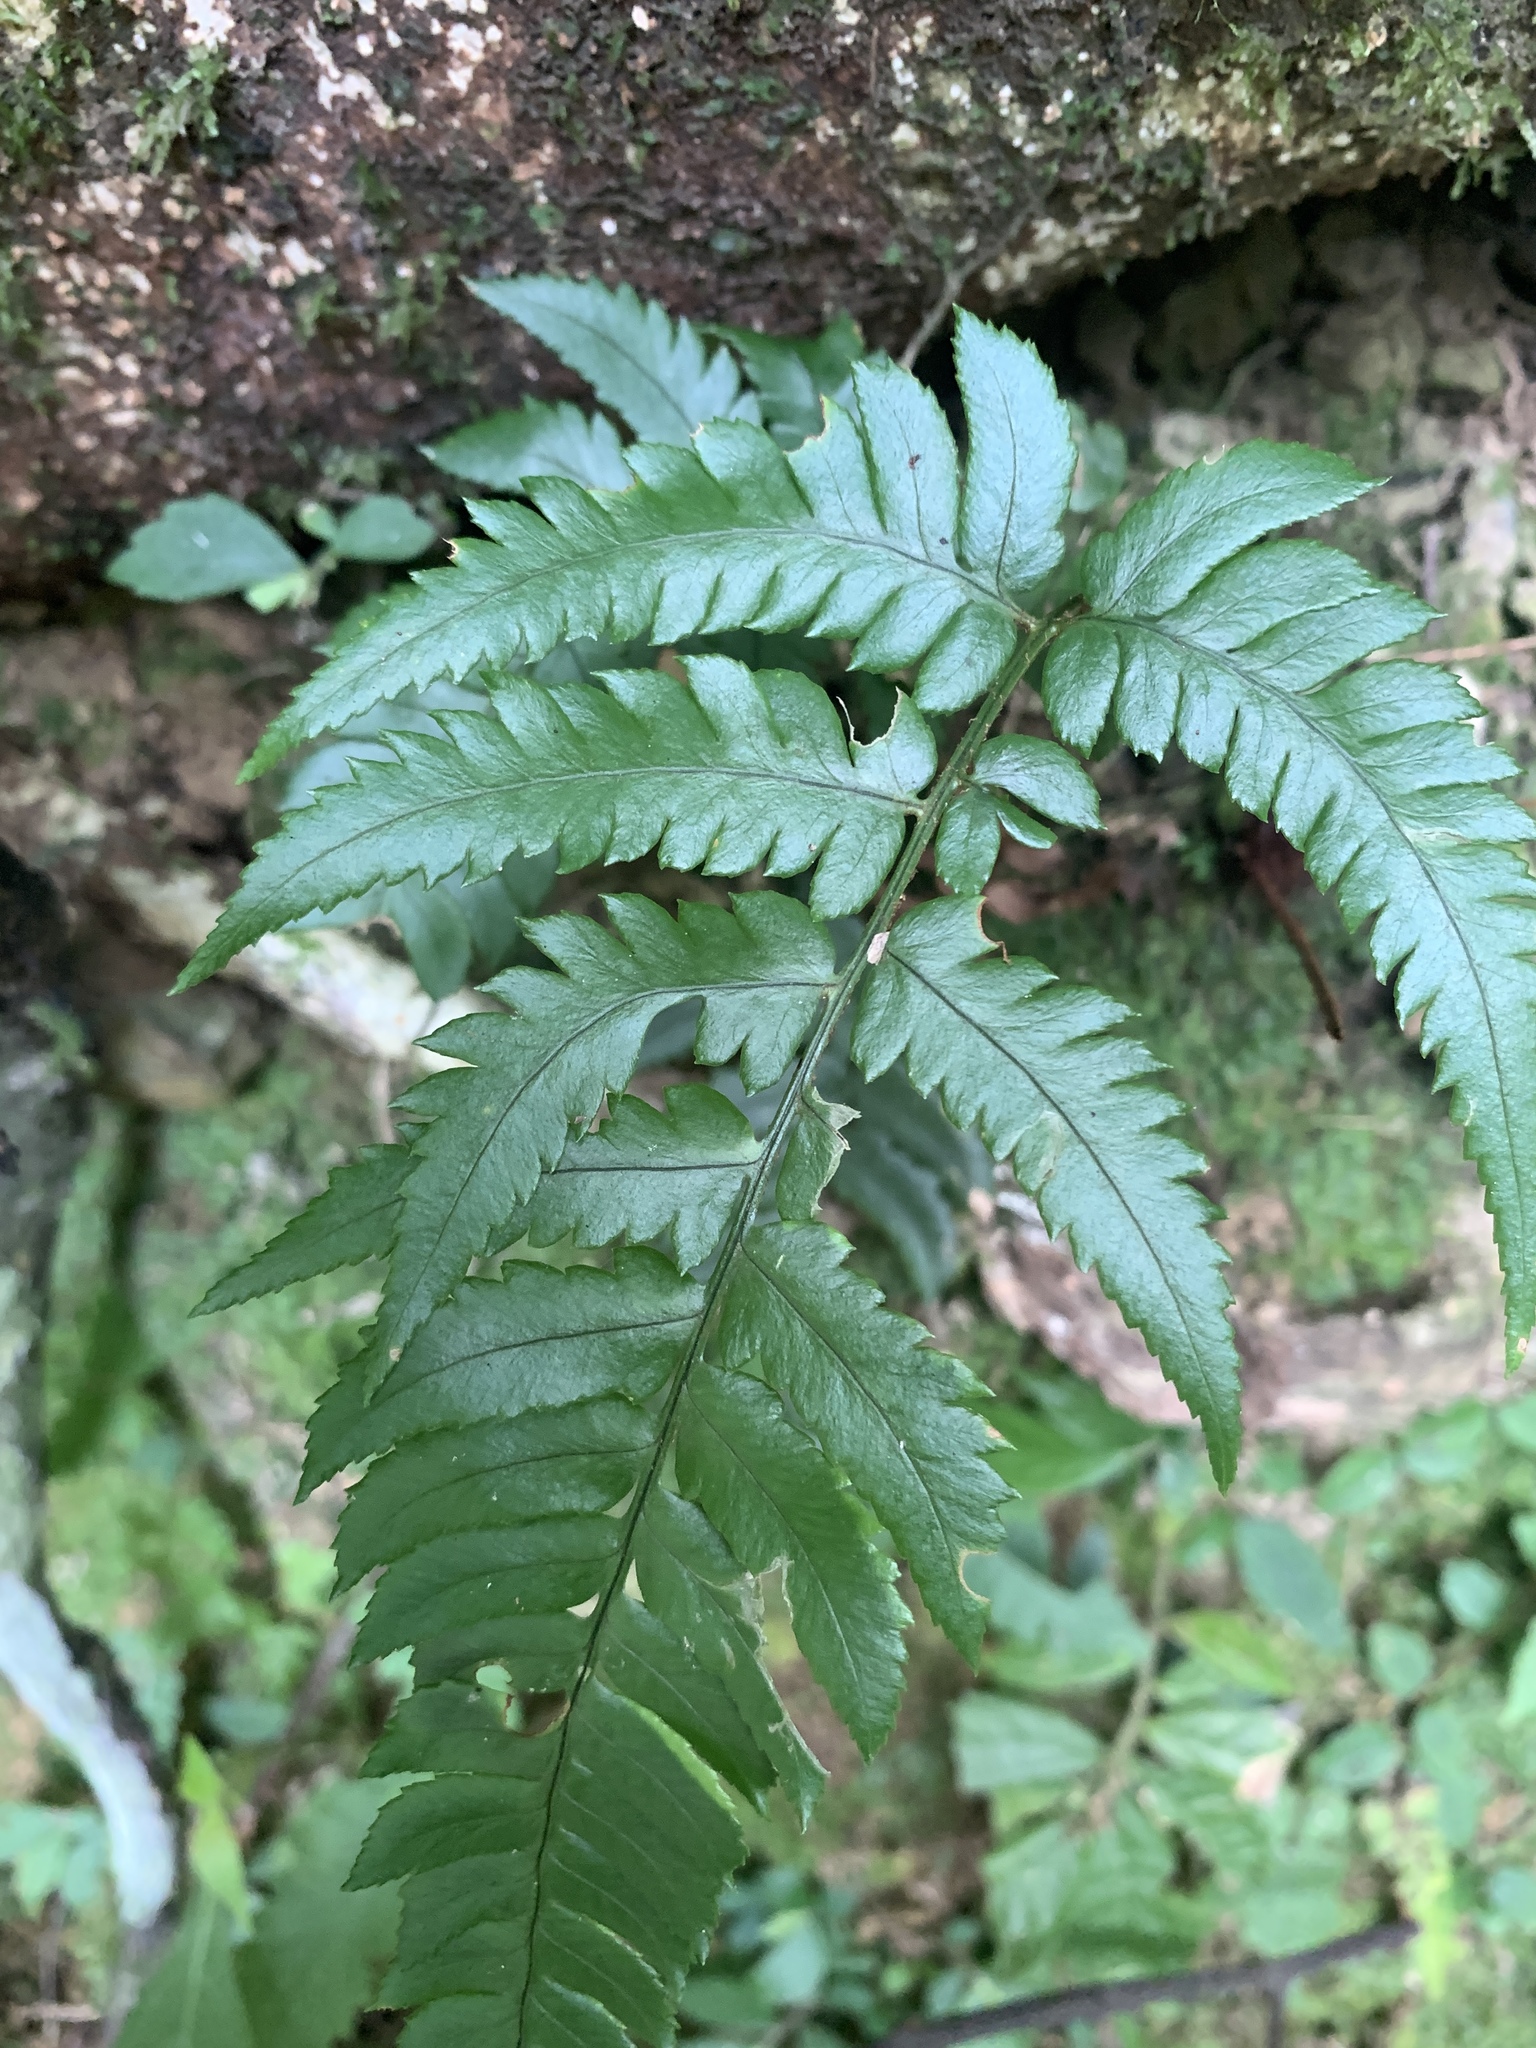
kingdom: Plantae
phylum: Tracheophyta
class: Polypodiopsida
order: Polypodiales
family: Dryopteridaceae
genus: Dryopteris
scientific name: Dryopteris varia
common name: Japanese holly fern
